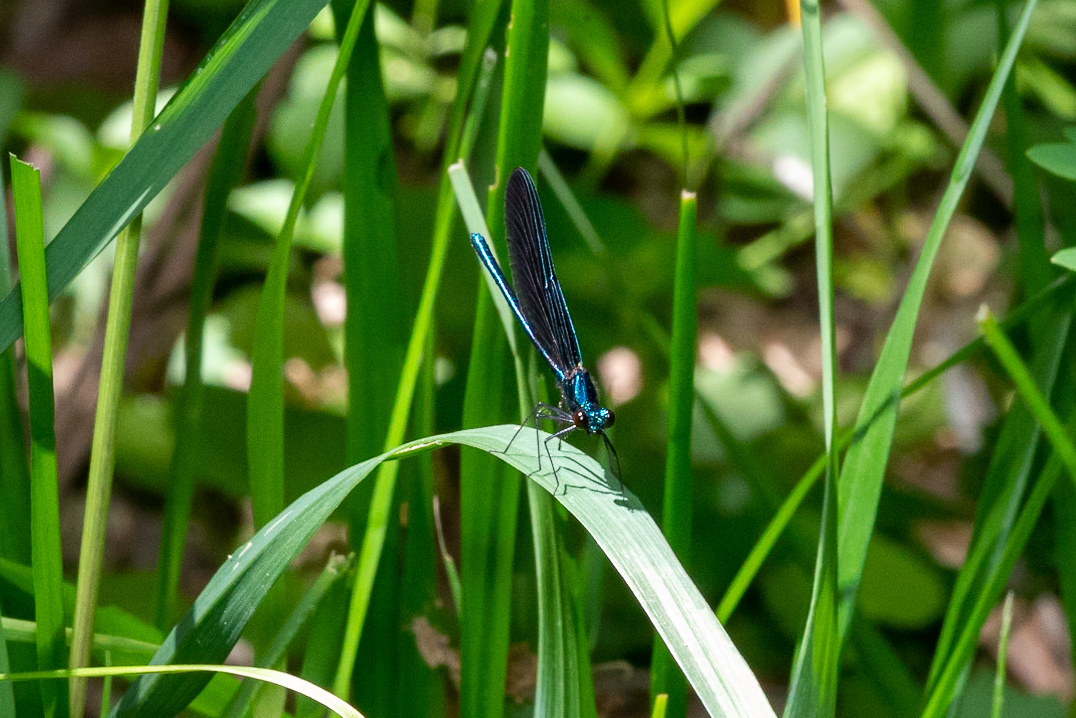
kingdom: Animalia
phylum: Arthropoda
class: Insecta
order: Odonata
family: Calopterygidae
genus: Calopteryx
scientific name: Calopteryx maculata
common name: Ebony jewelwing
